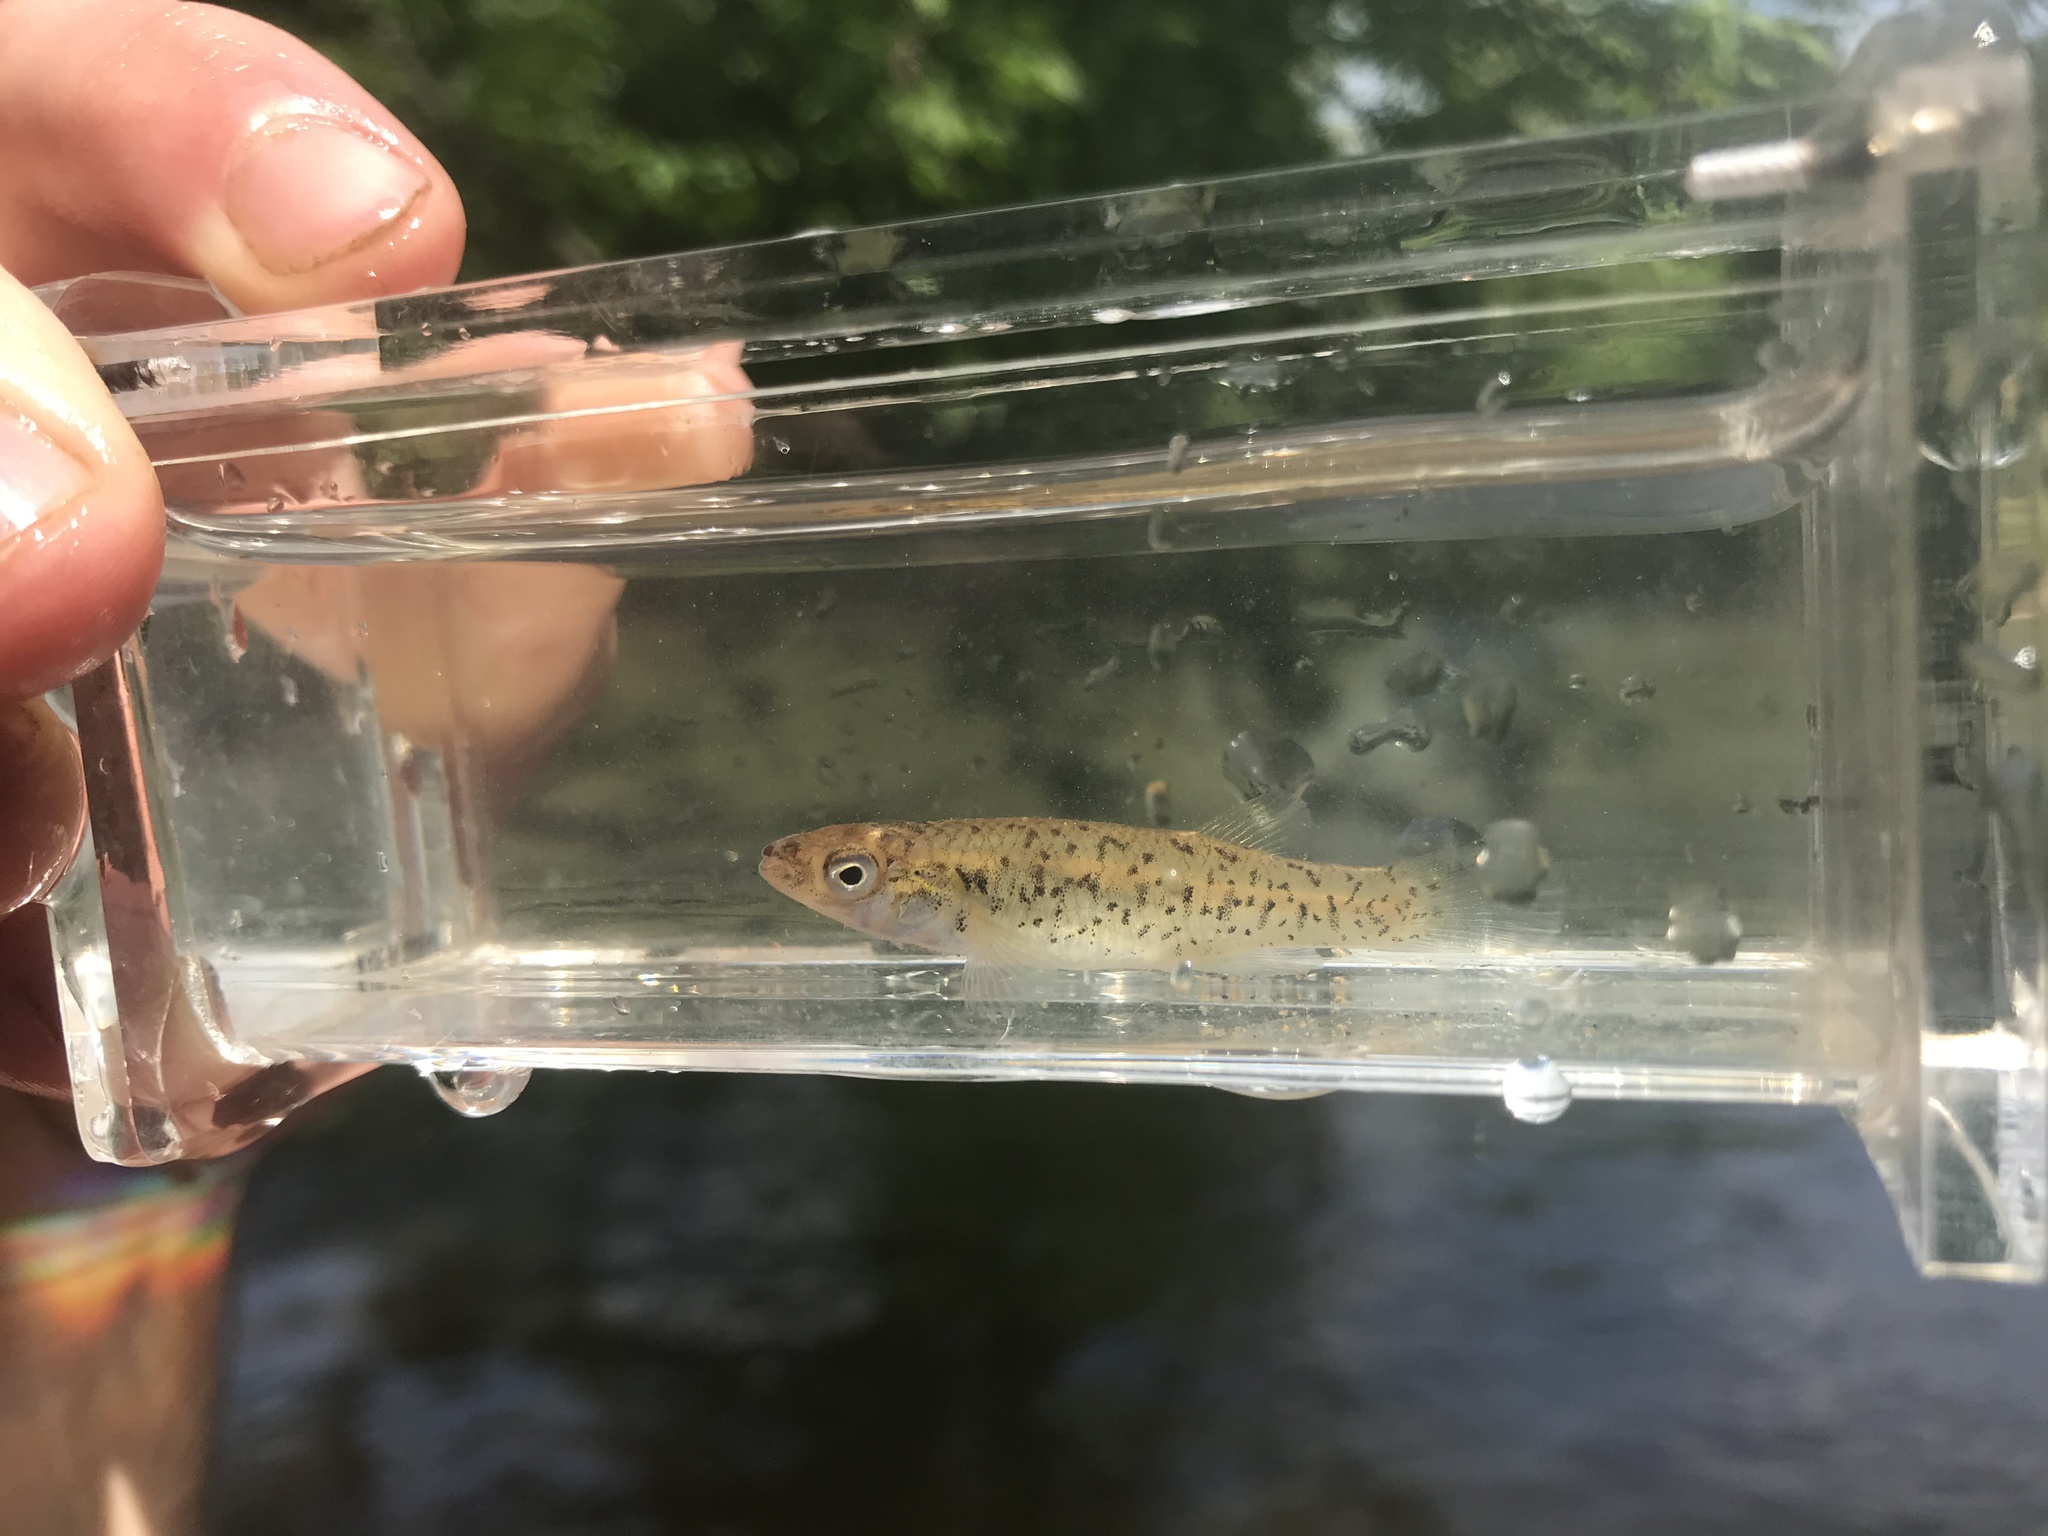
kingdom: Animalia
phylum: Chordata
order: Cyprinodontiformes
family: Fundulidae
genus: Fundulus
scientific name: Fundulus rathbuni
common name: Speckled killifish
